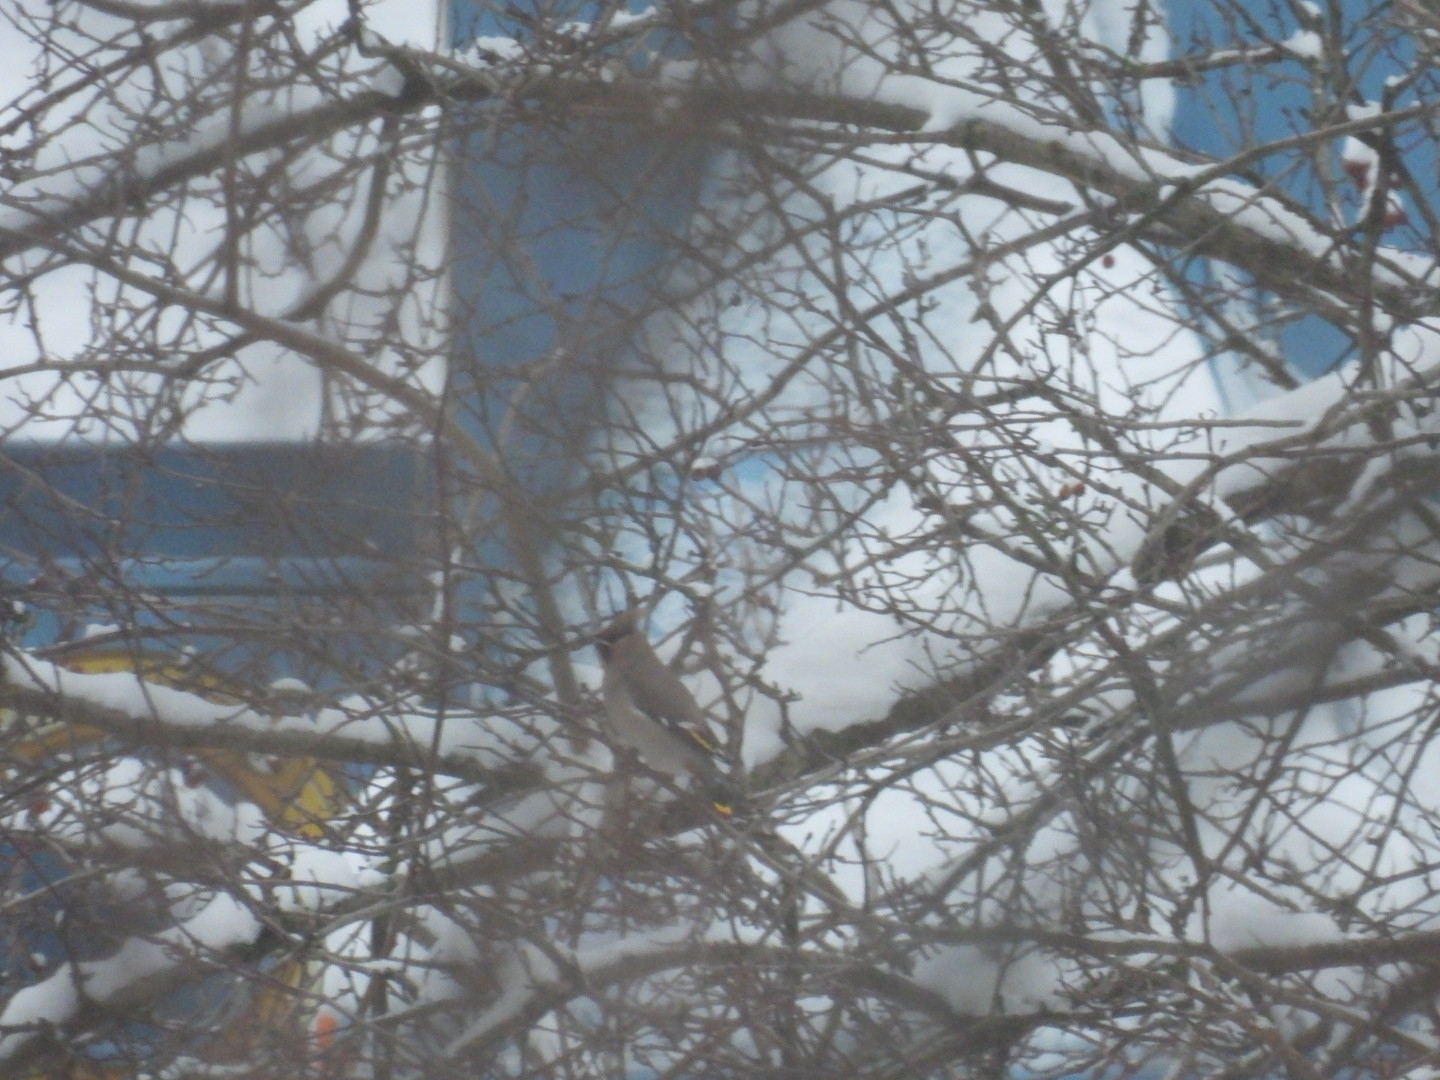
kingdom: Animalia
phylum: Chordata
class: Aves
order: Passeriformes
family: Bombycillidae
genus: Bombycilla
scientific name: Bombycilla garrulus
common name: Bohemian waxwing
